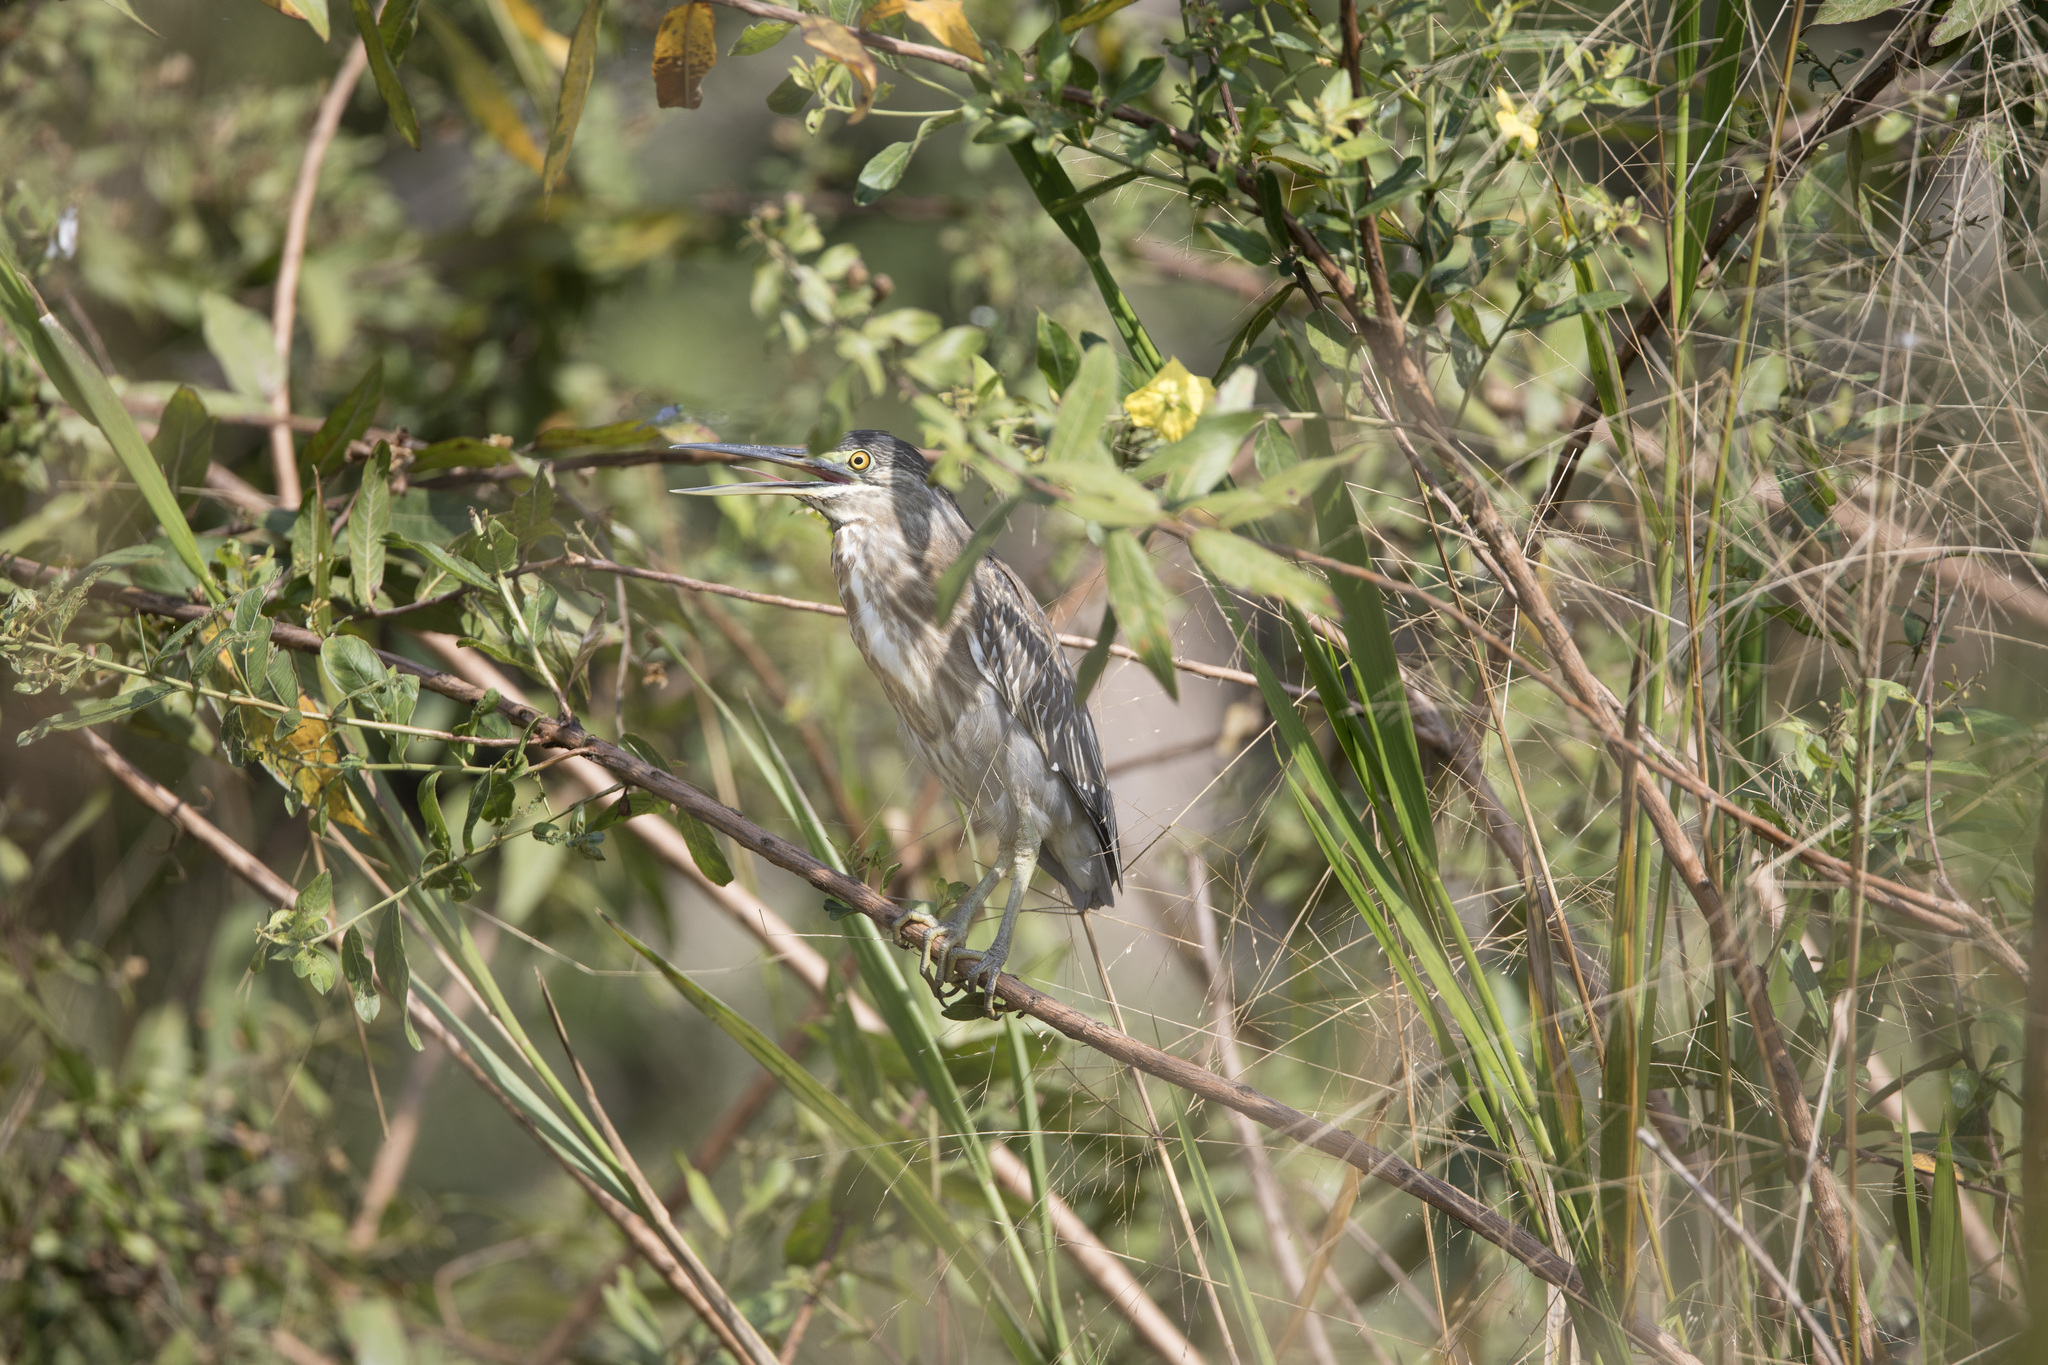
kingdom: Animalia
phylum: Chordata
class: Aves
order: Pelecaniformes
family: Ardeidae
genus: Butorides
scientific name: Butorides striata
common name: Striated heron
